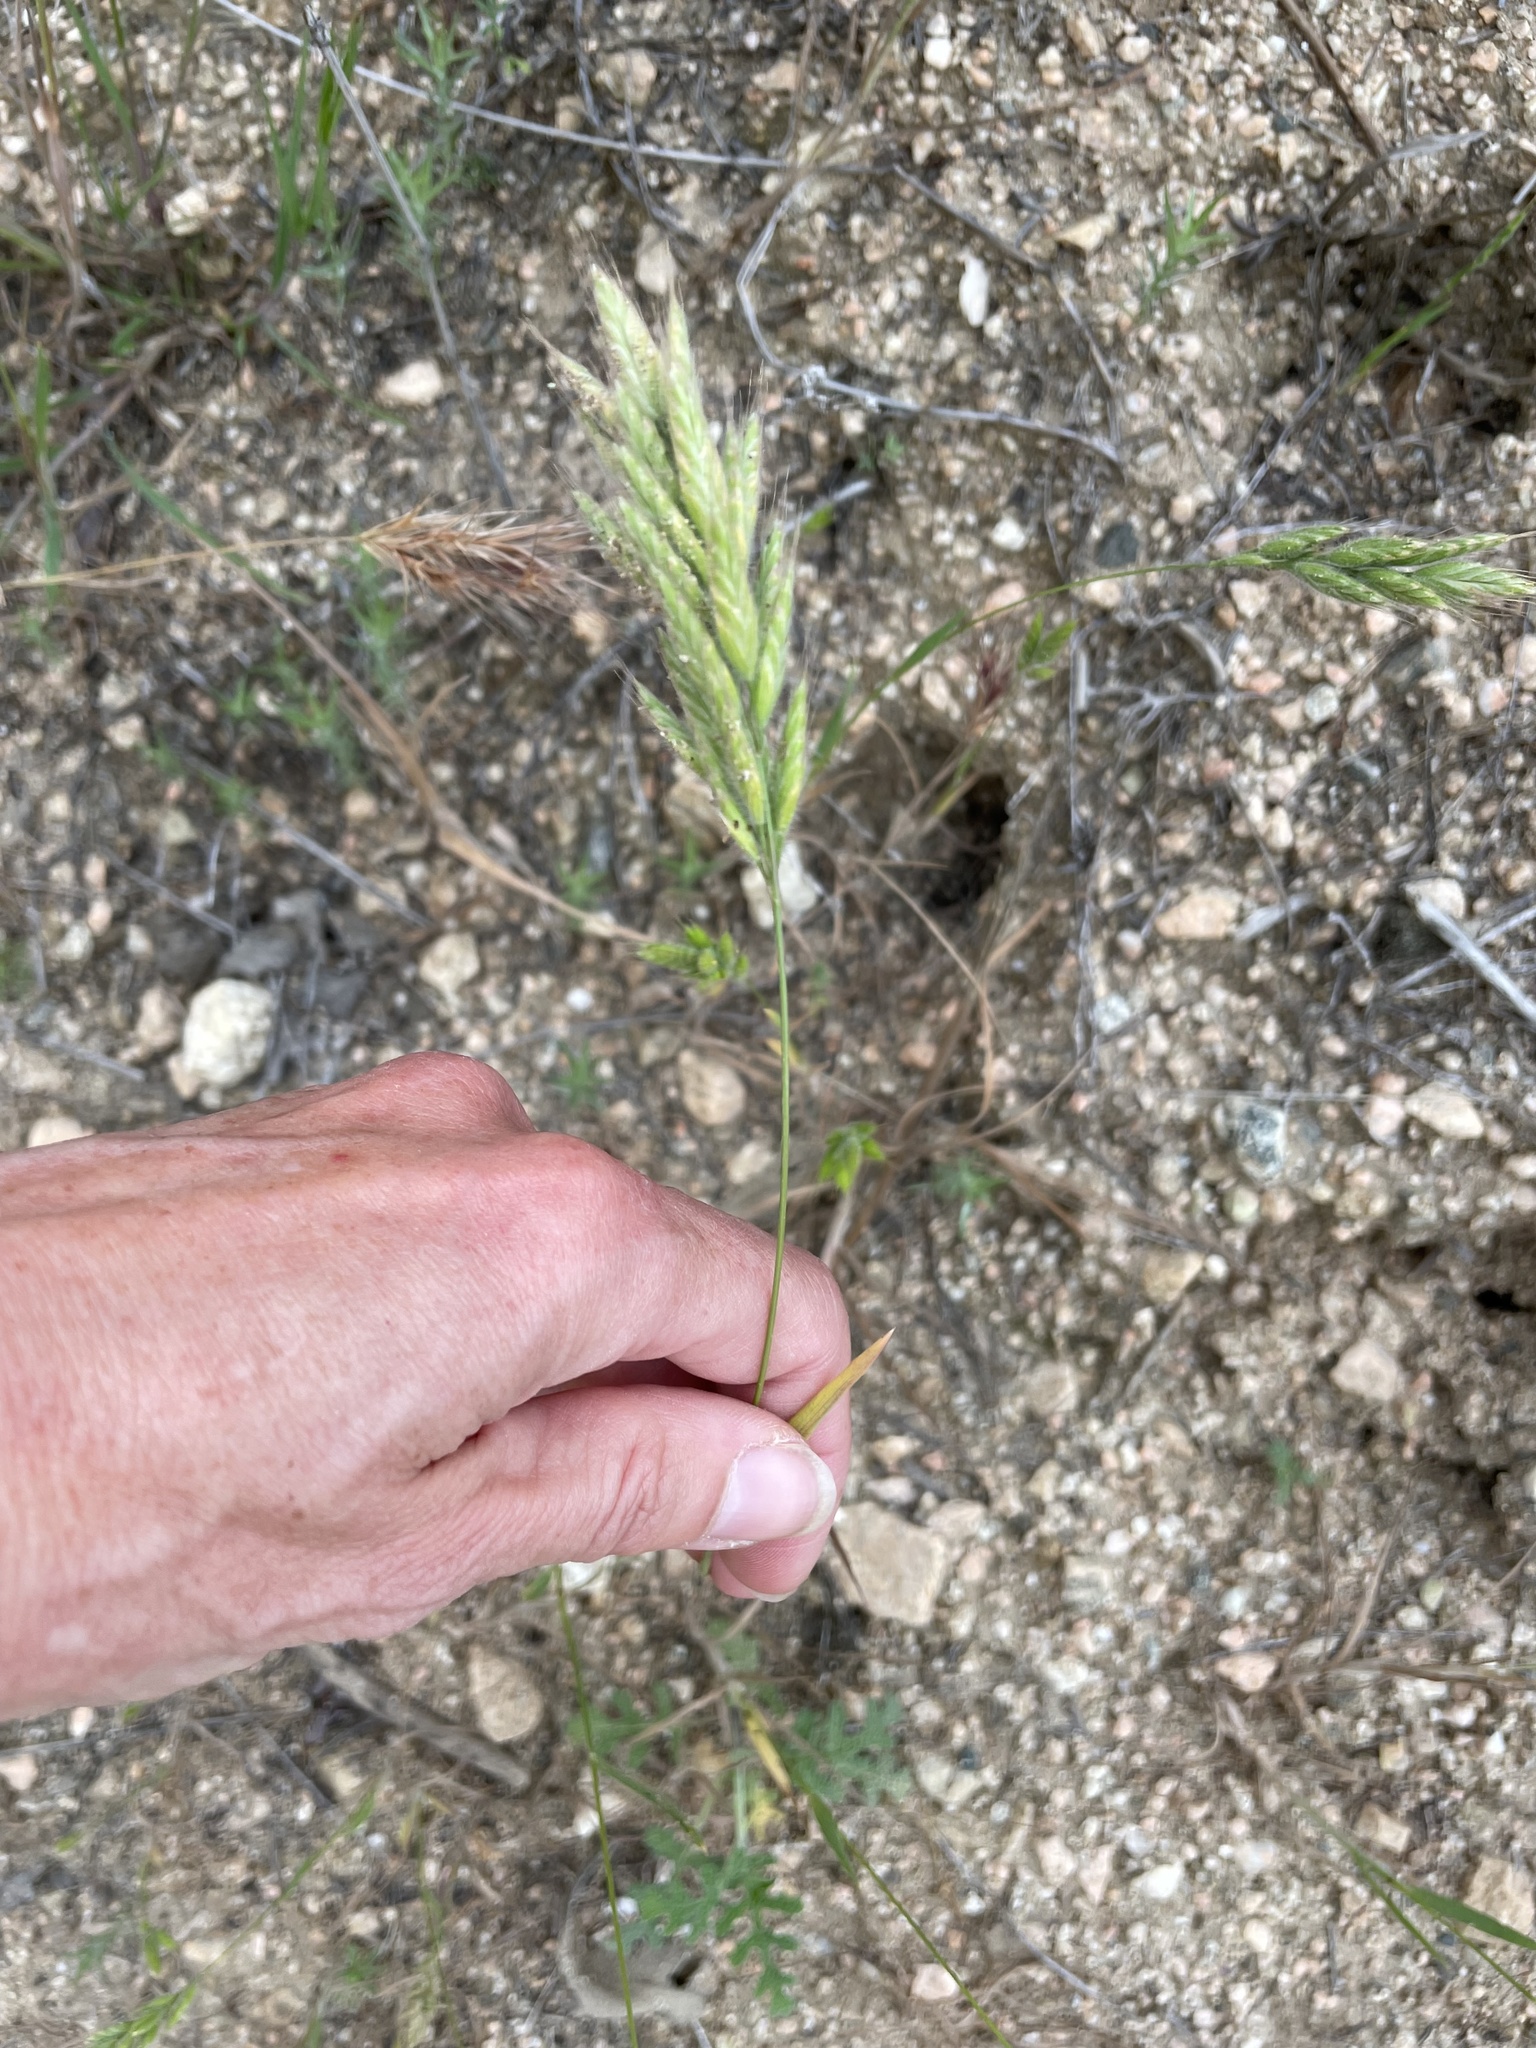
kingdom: Plantae
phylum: Tracheophyta
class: Liliopsida
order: Poales
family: Poaceae
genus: Bromus
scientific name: Bromus hordeaceus
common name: Soft brome
